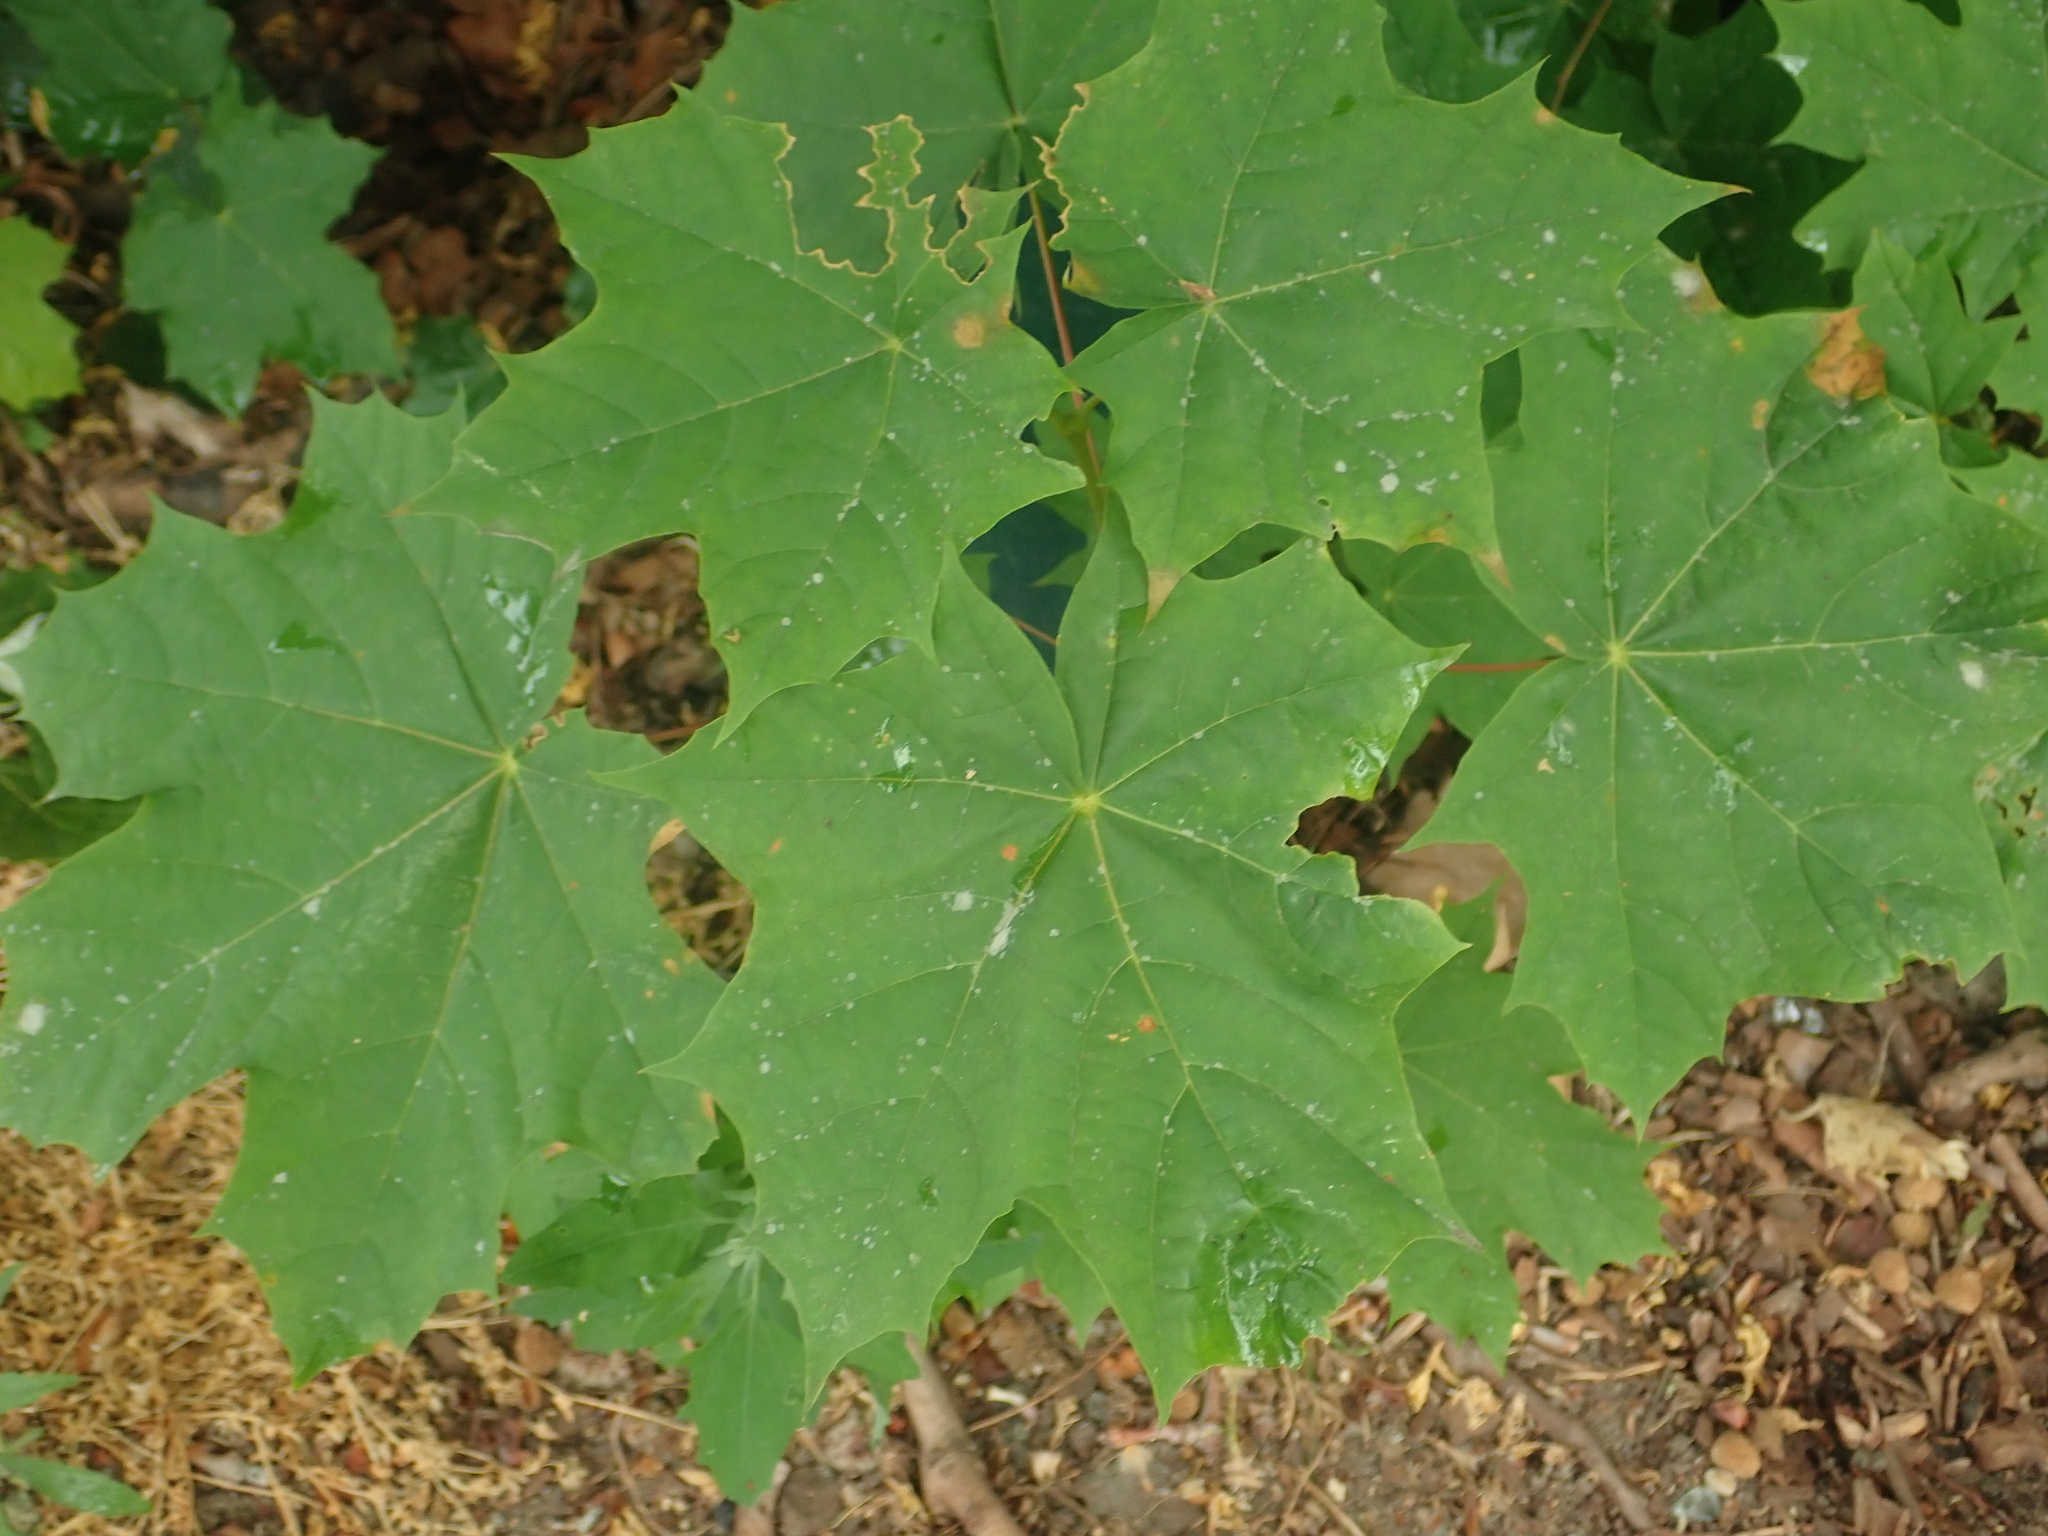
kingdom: Plantae
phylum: Tracheophyta
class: Magnoliopsida
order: Sapindales
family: Sapindaceae
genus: Acer
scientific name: Acer platanoides
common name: Norway maple
